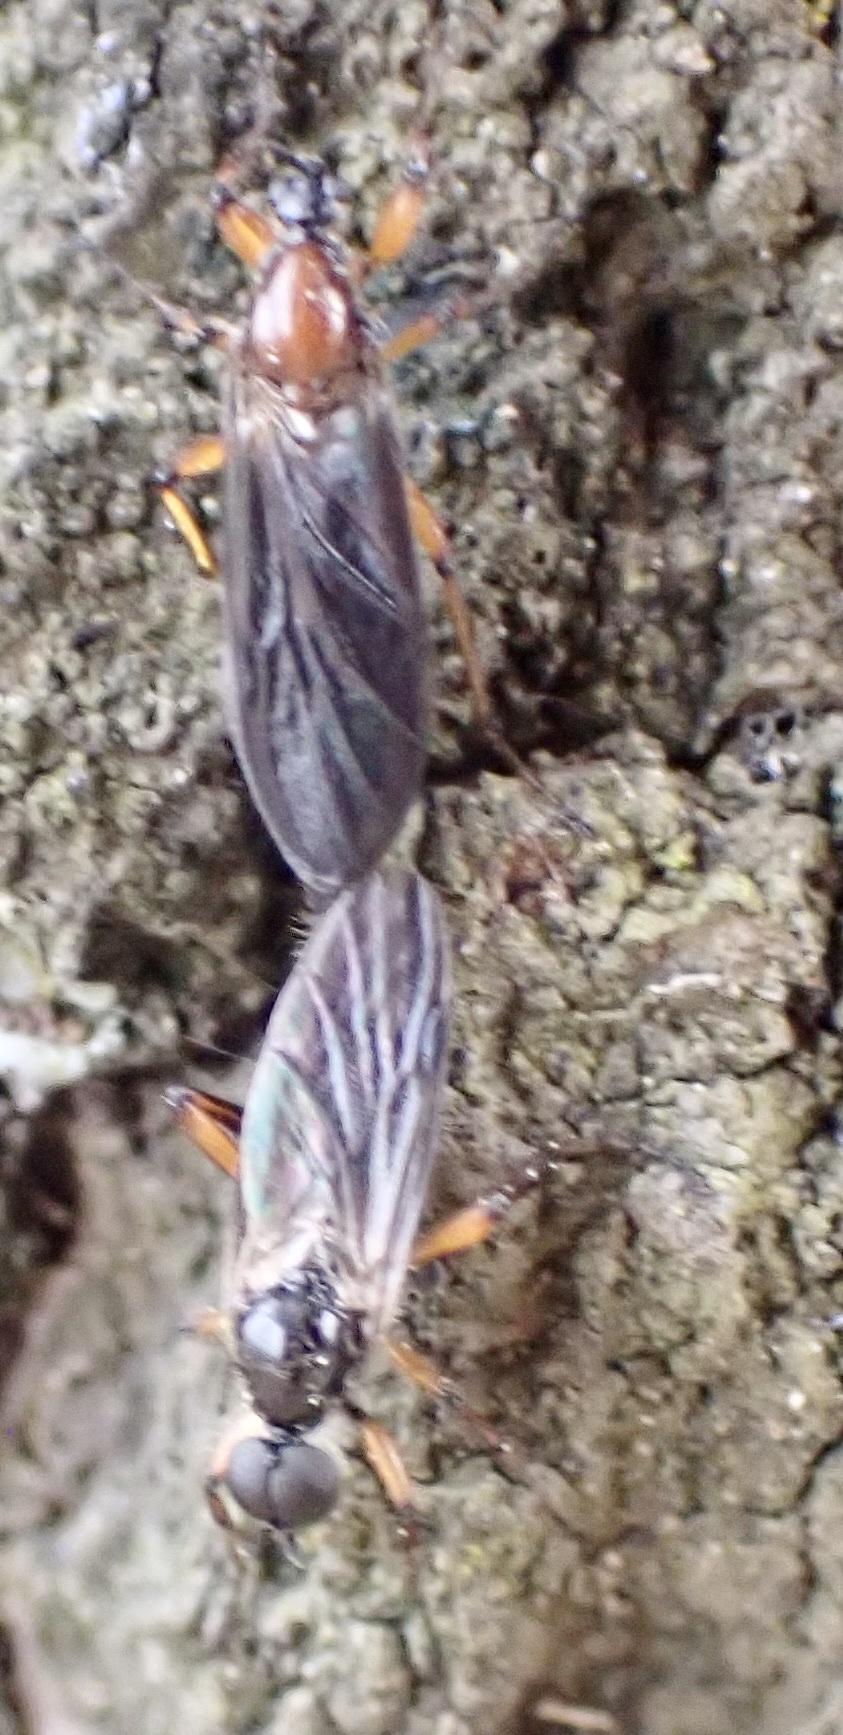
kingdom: Animalia
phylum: Arthropoda
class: Insecta
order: Diptera
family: Bibionidae
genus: Bibio
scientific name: Bibio articulatus
